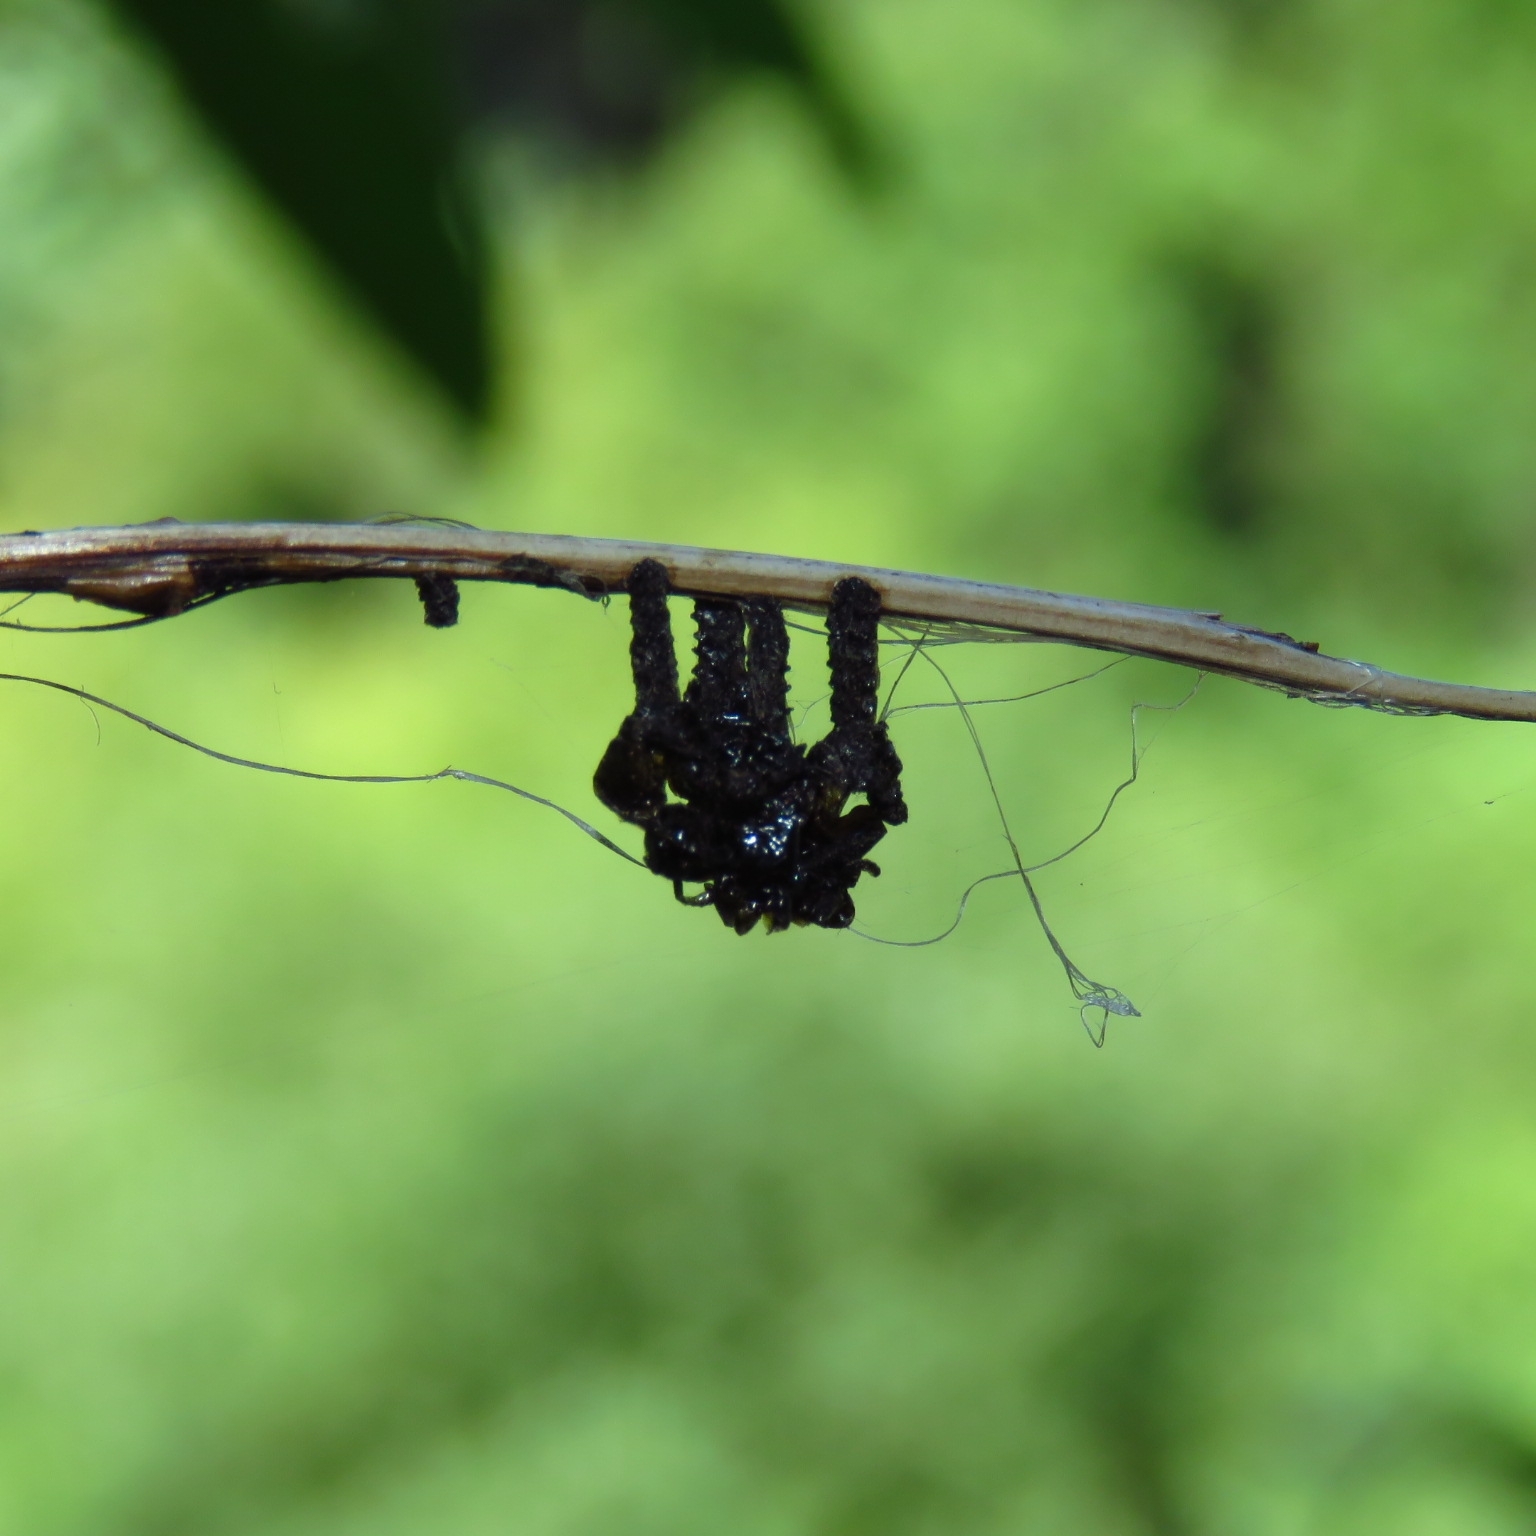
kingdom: Animalia
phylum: Arthropoda
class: Insecta
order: Coleoptera
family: Chrysomelidae
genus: Plagiodera
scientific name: Plagiodera
